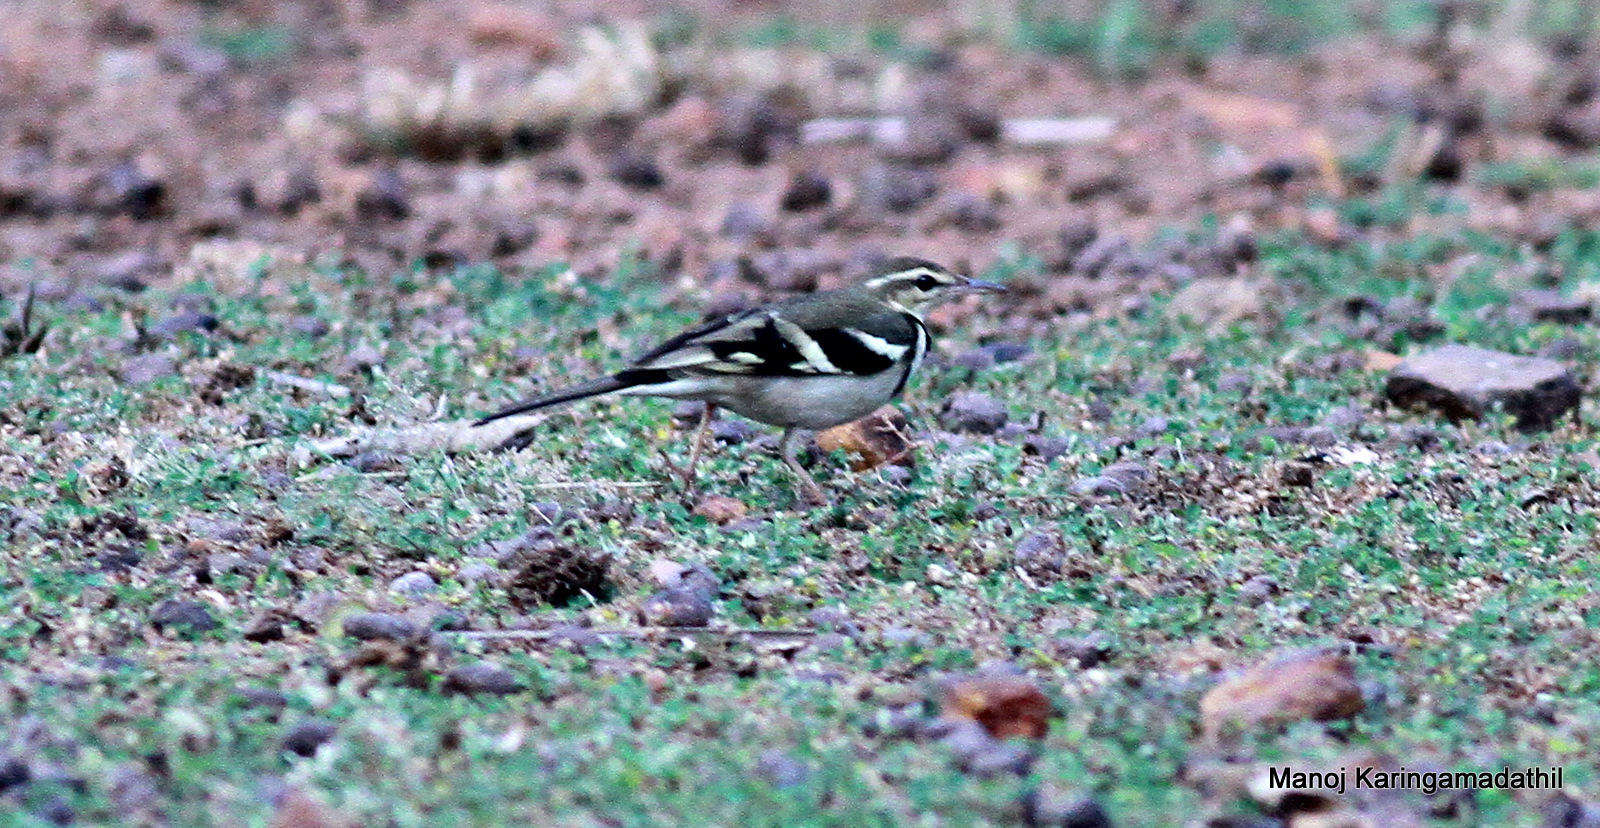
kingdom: Animalia
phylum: Chordata
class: Aves
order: Passeriformes
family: Motacillidae
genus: Dendronanthus
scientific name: Dendronanthus indicus
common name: Forest wagtail
